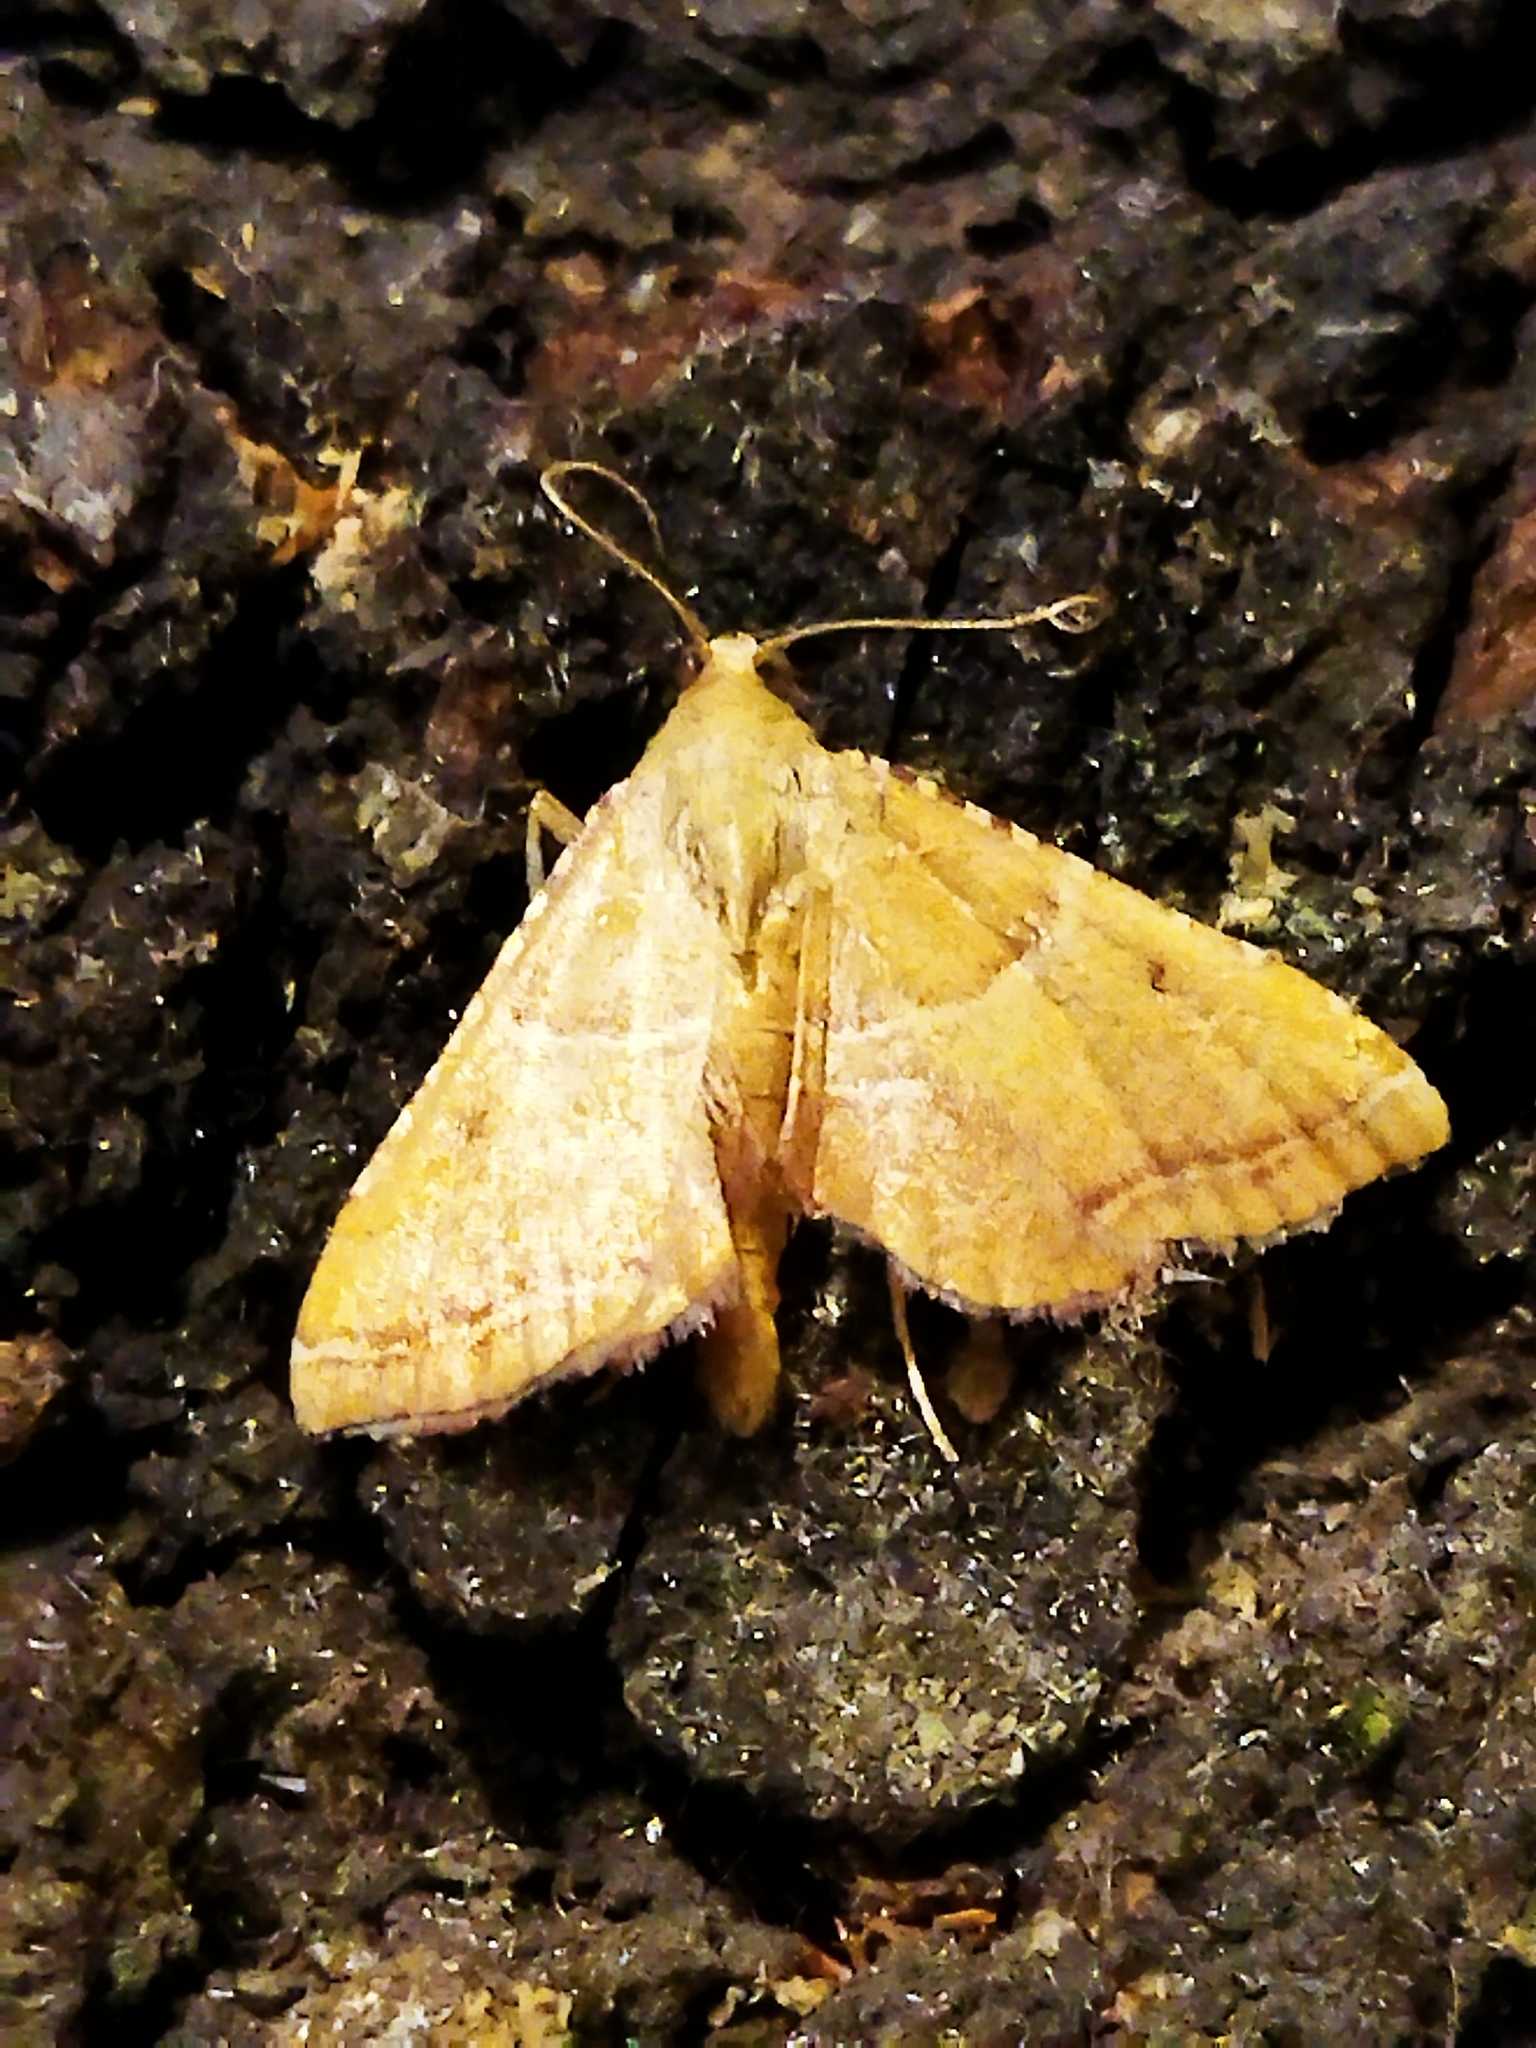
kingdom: Animalia
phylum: Arthropoda
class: Insecta
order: Lepidoptera
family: Pyralidae
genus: Endotricha
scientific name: Endotricha flammealis
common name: Rosy tabby
